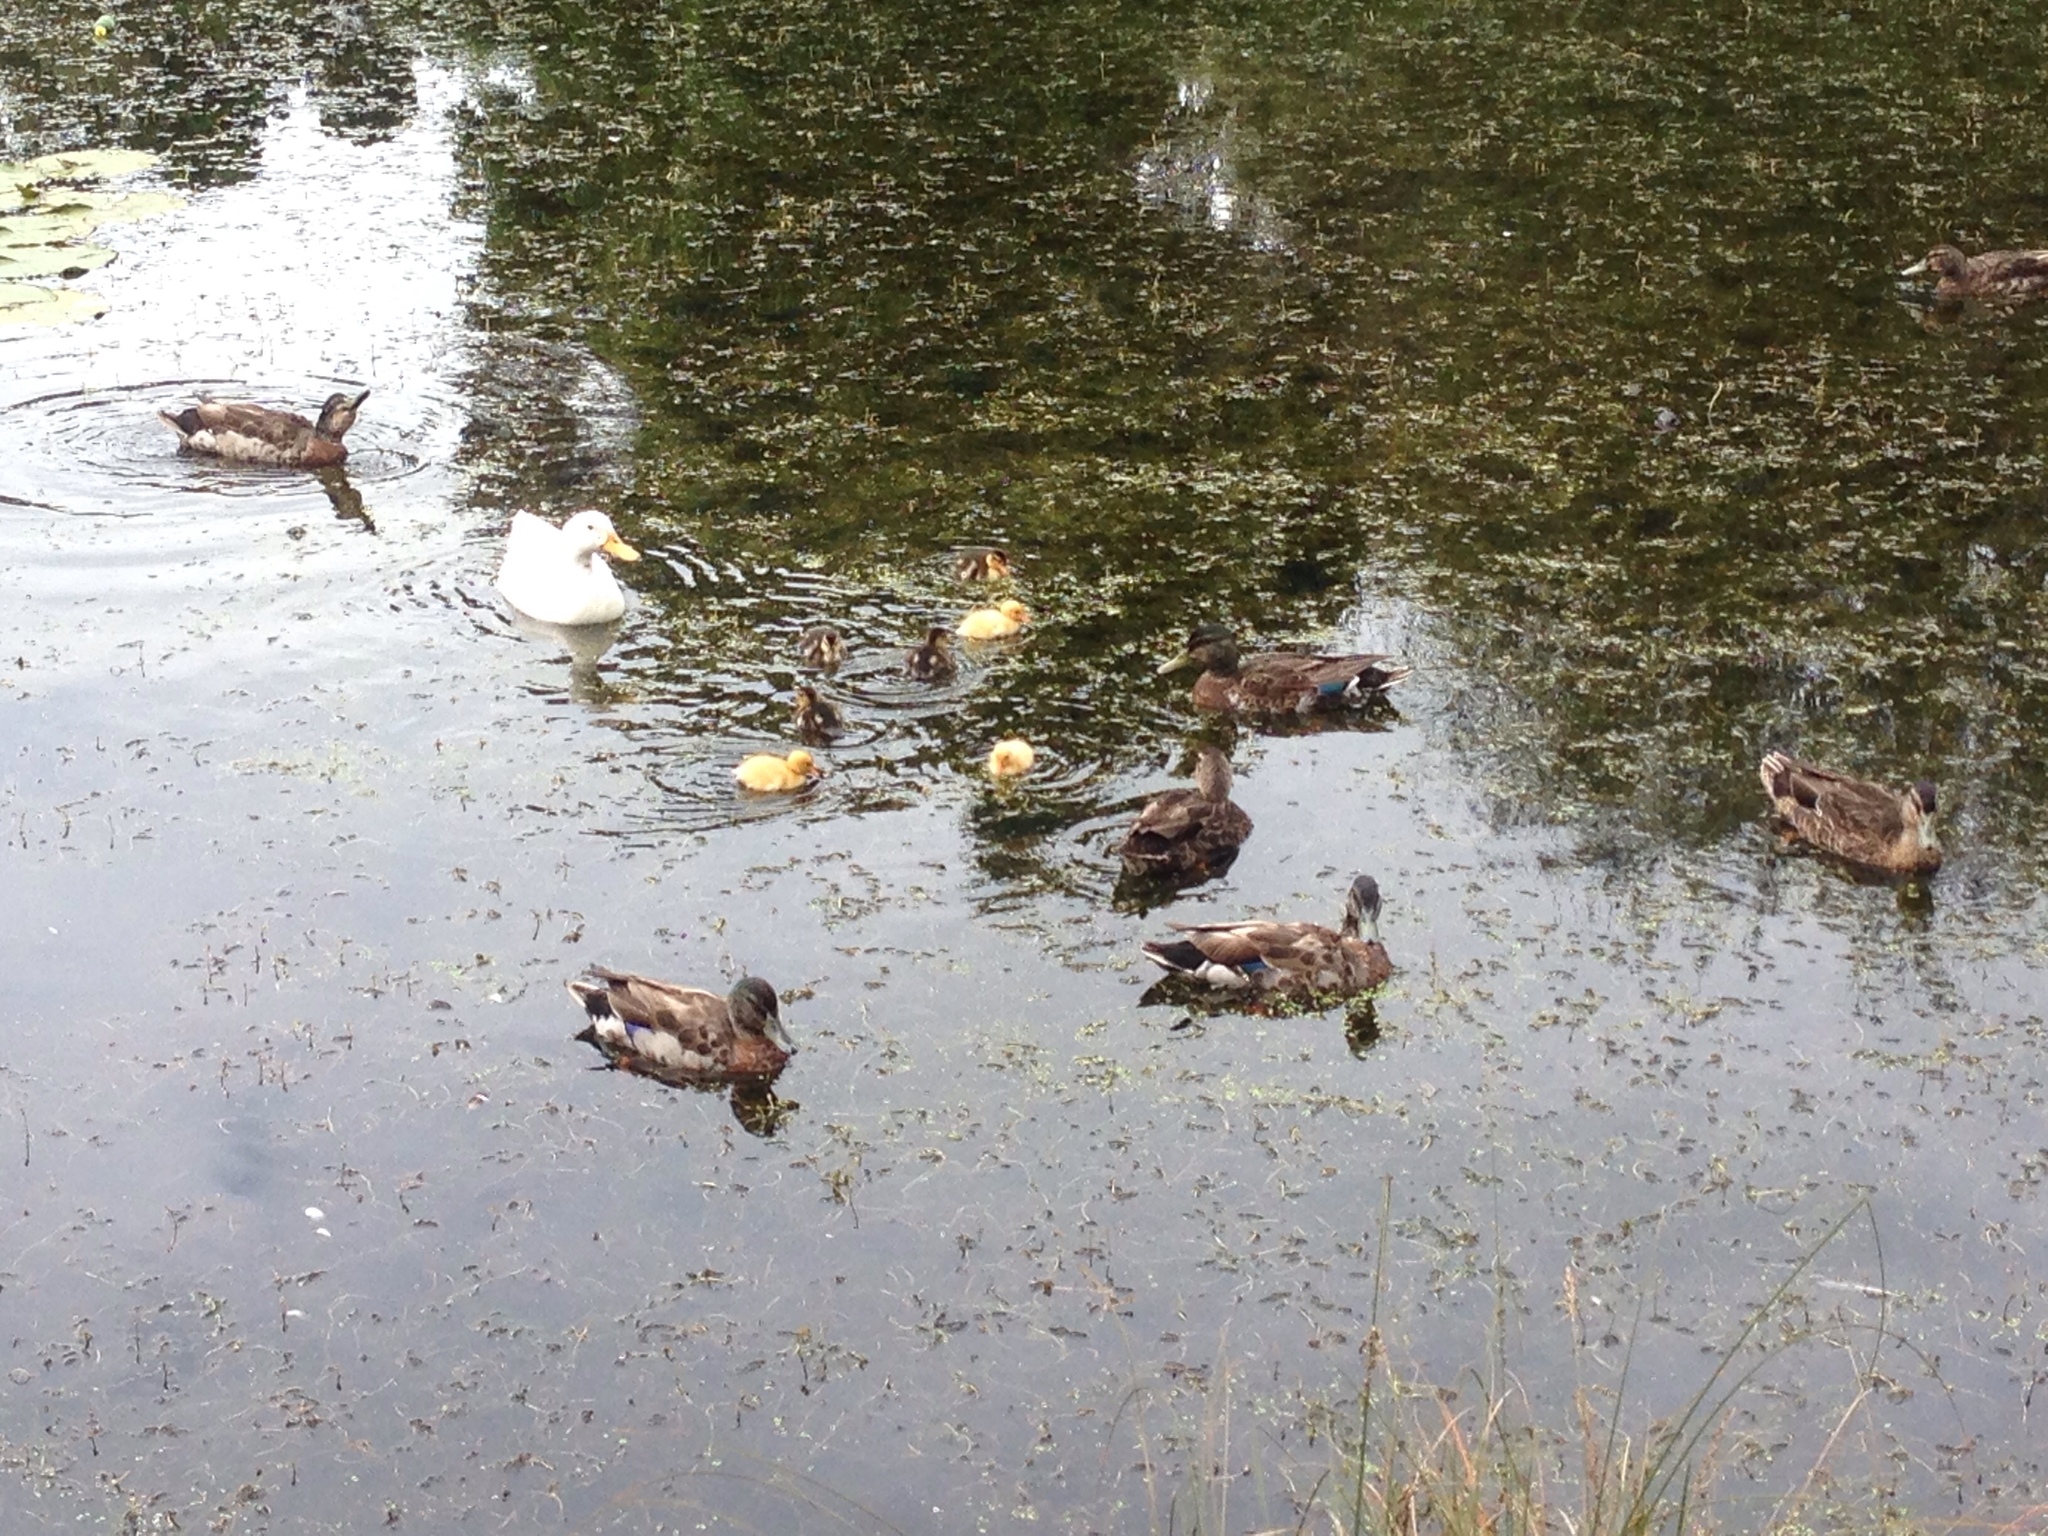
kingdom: Animalia
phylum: Chordata
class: Aves
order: Anseriformes
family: Anatidae
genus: Anas
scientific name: Anas platyrhynchos
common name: Mallard
